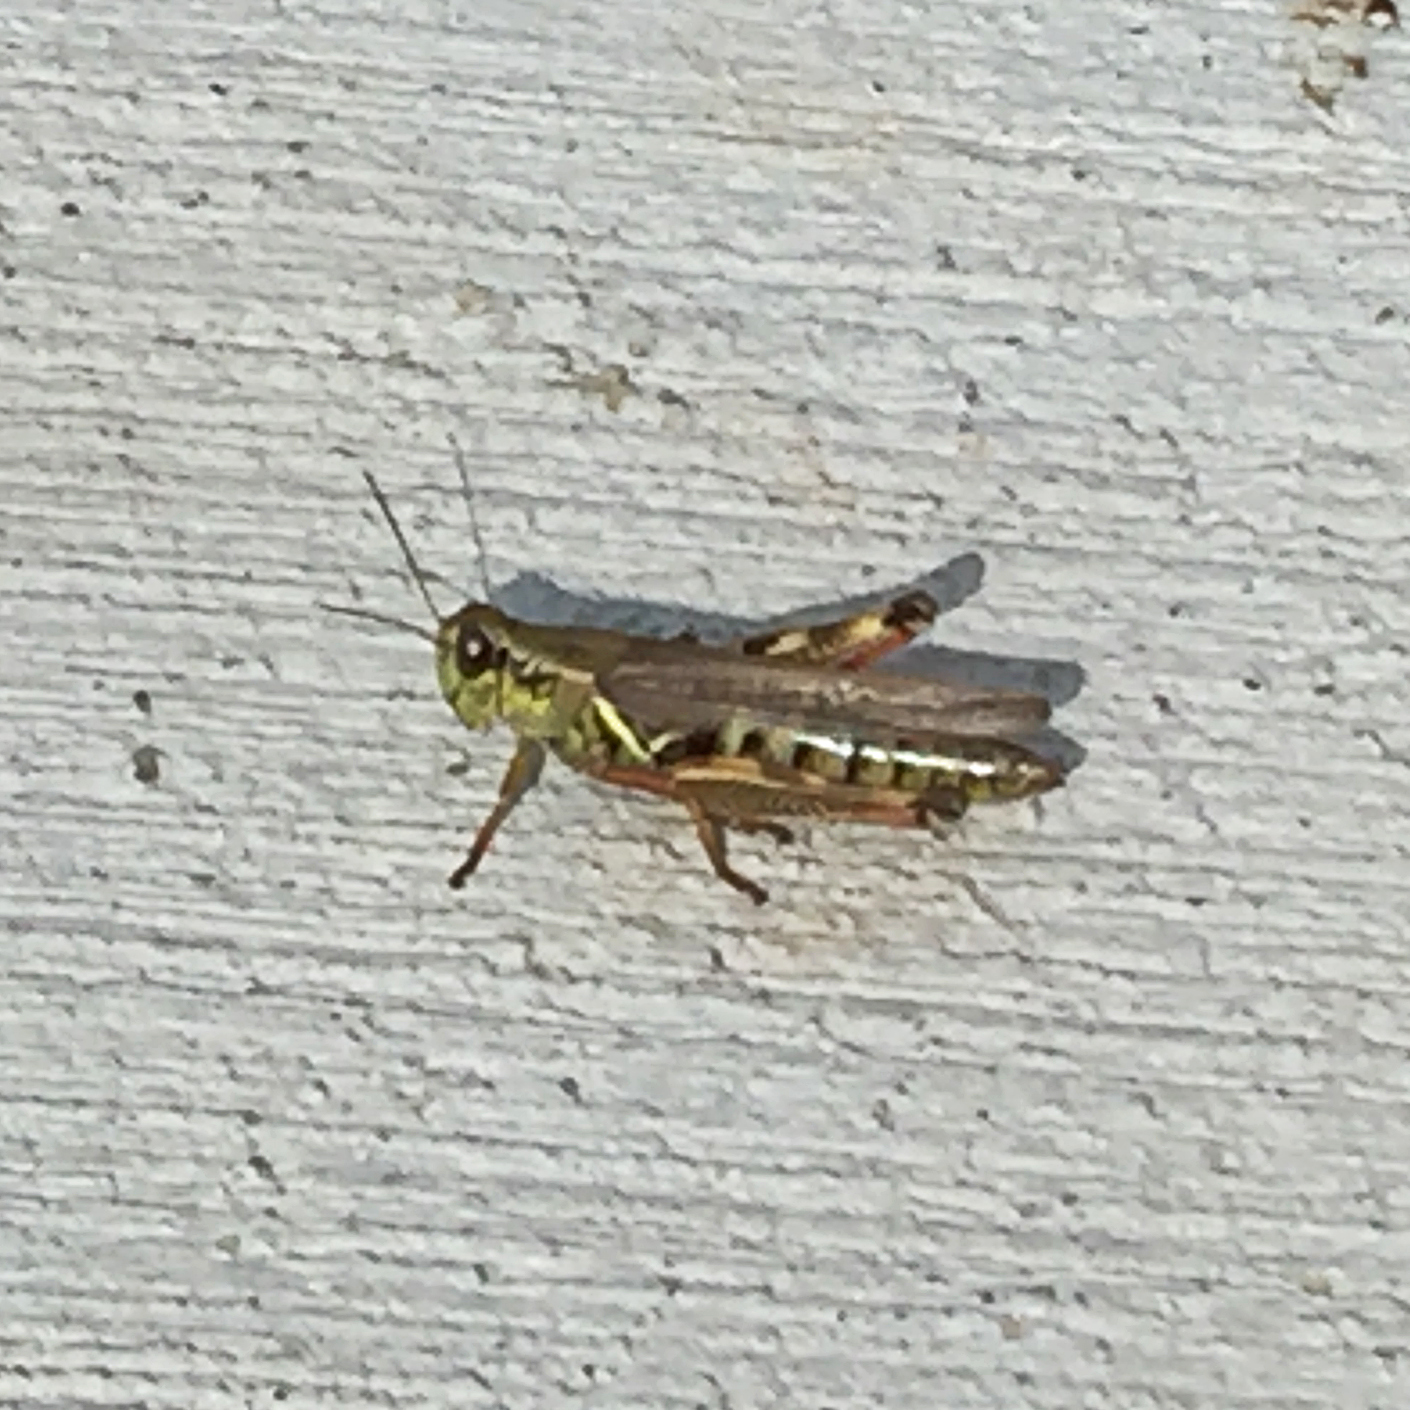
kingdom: Animalia
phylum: Arthropoda
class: Insecta
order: Orthoptera
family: Acrididae
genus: Melanoplus
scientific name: Melanoplus femurrubrum
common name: Red-legged grasshopper
